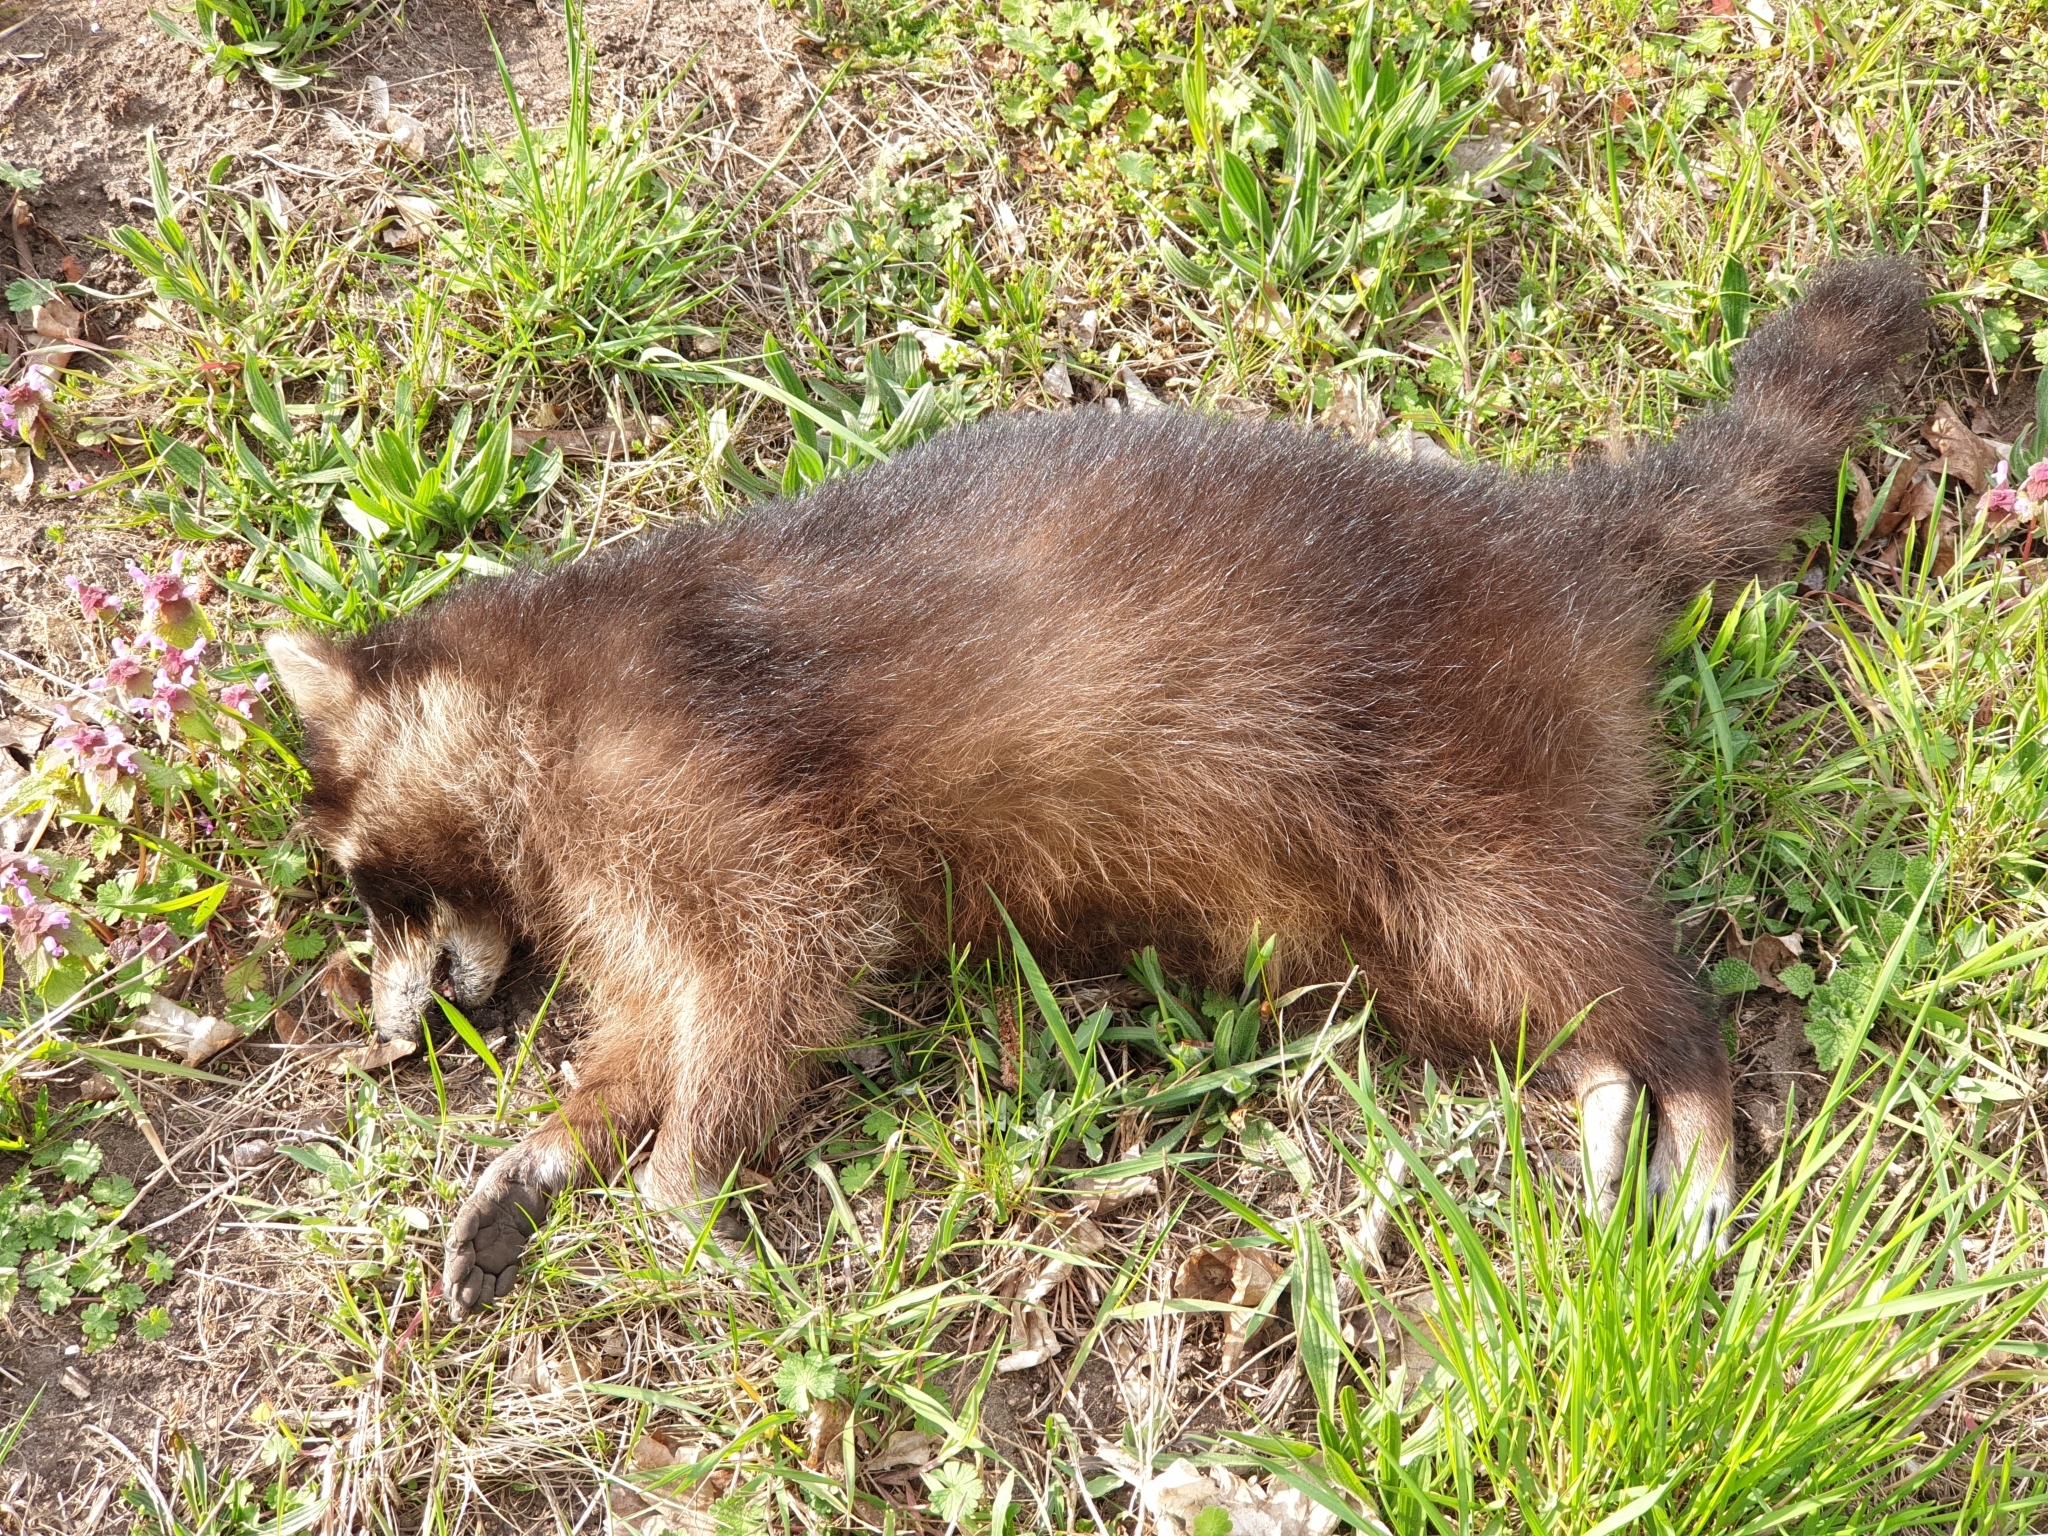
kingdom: Animalia
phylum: Chordata
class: Mammalia
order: Carnivora
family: Procyonidae
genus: Procyon
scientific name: Procyon lotor
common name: Raccoon
